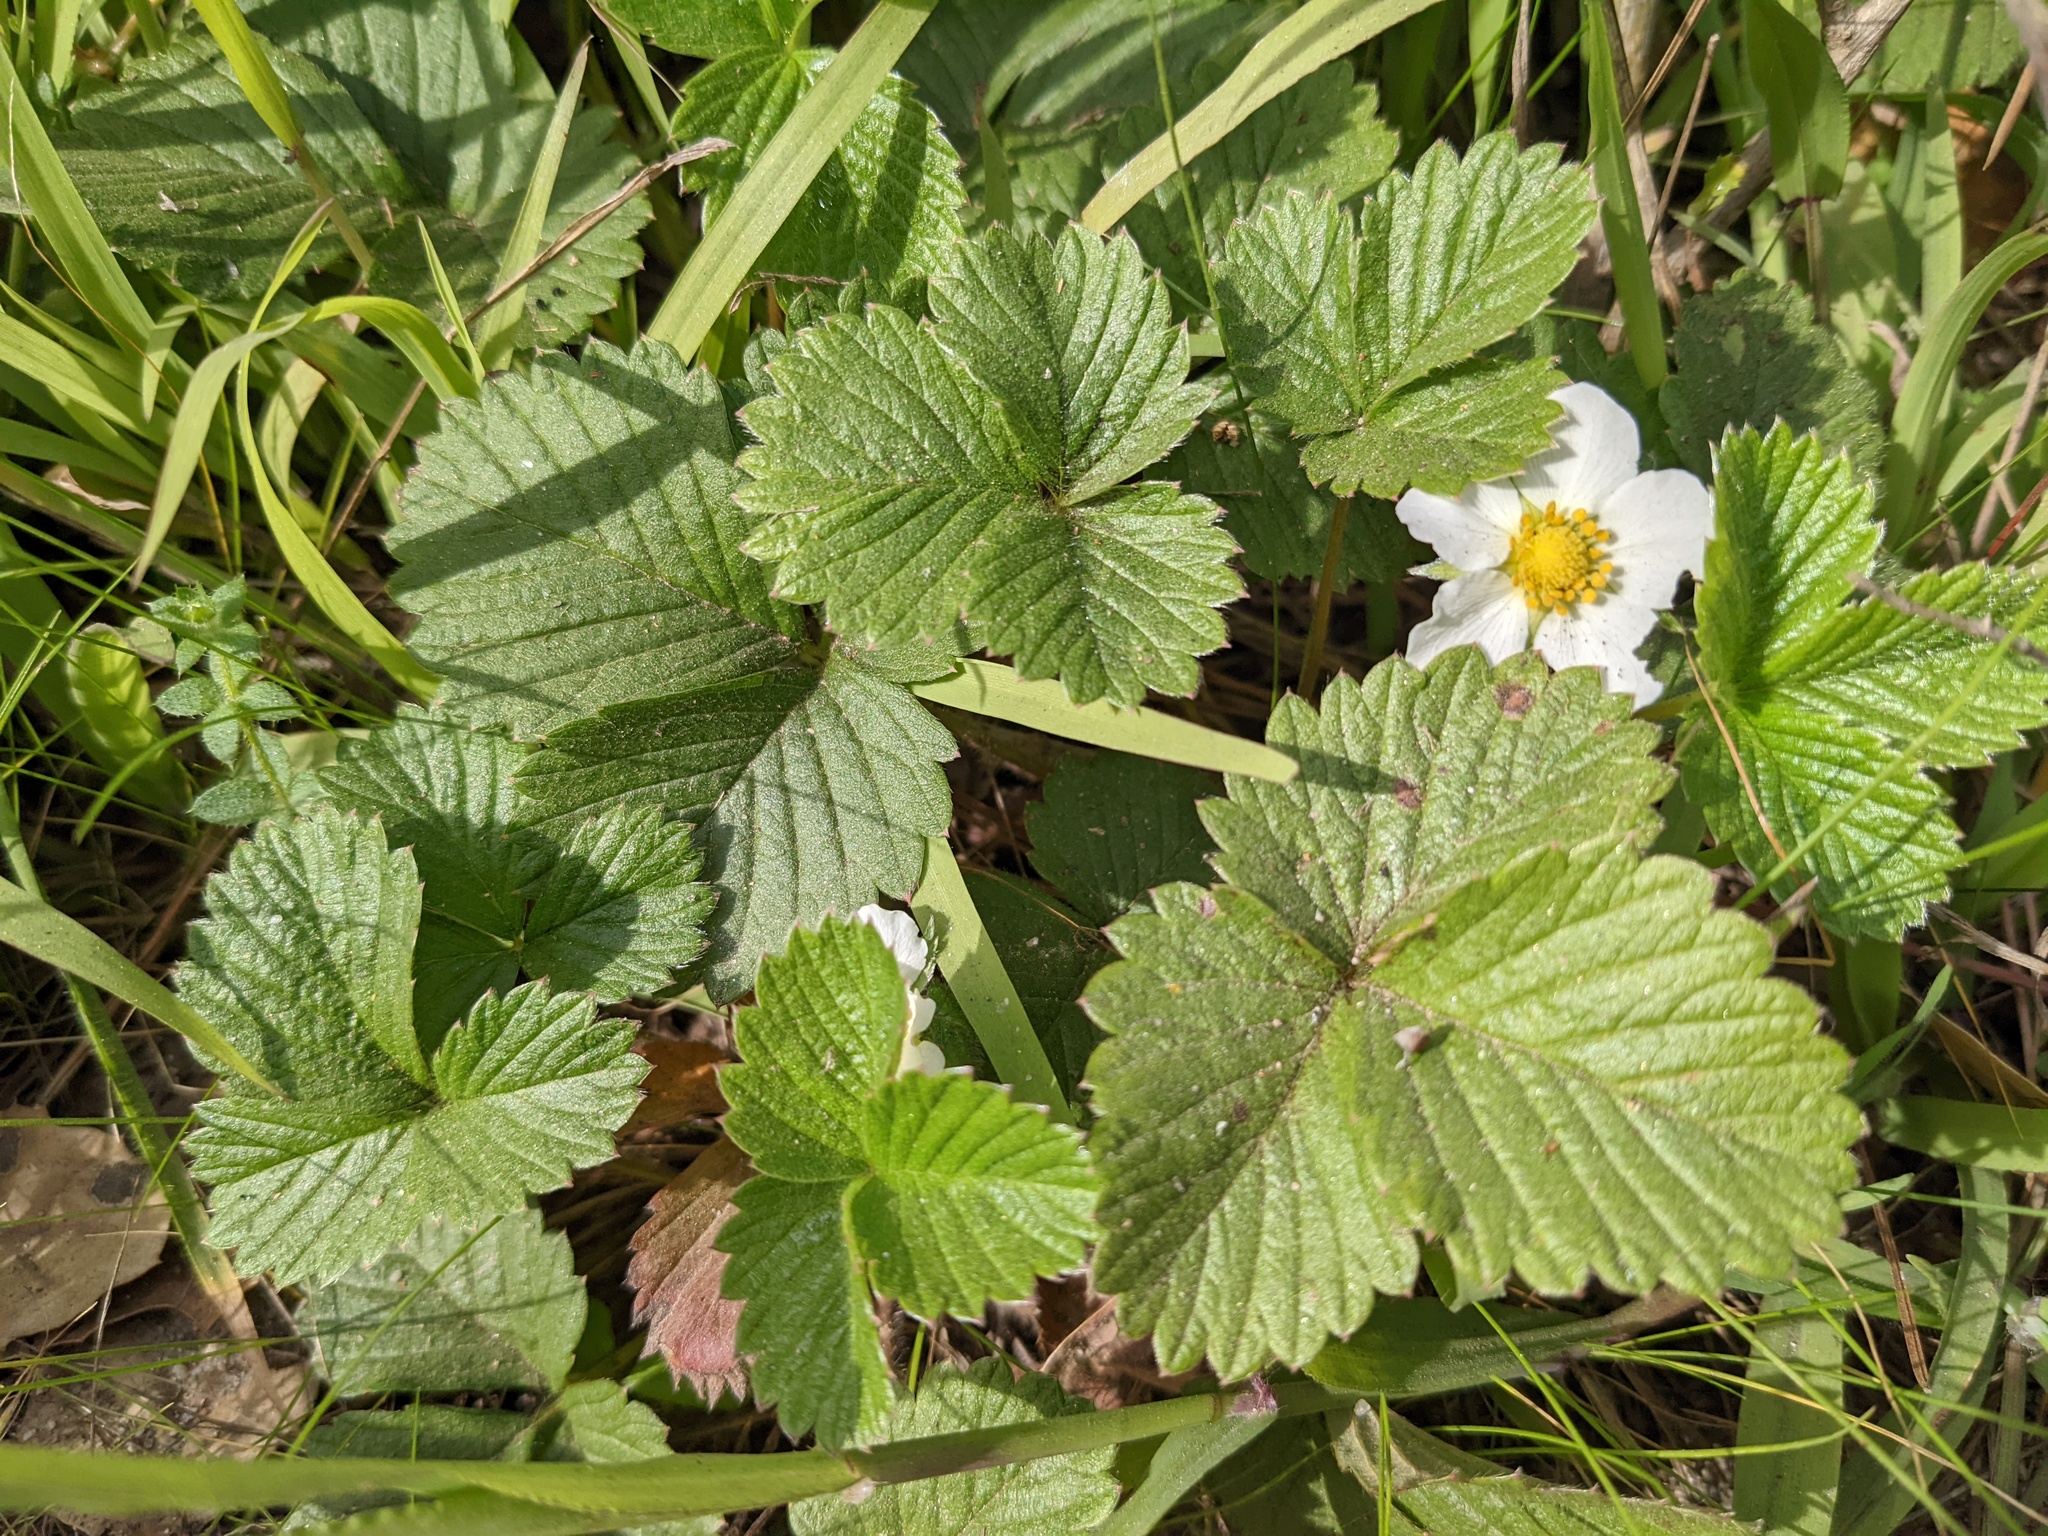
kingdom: Plantae
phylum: Tracheophyta
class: Magnoliopsida
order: Rosales
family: Rosaceae
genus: Fragaria
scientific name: Fragaria vesca
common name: Wild strawberry
